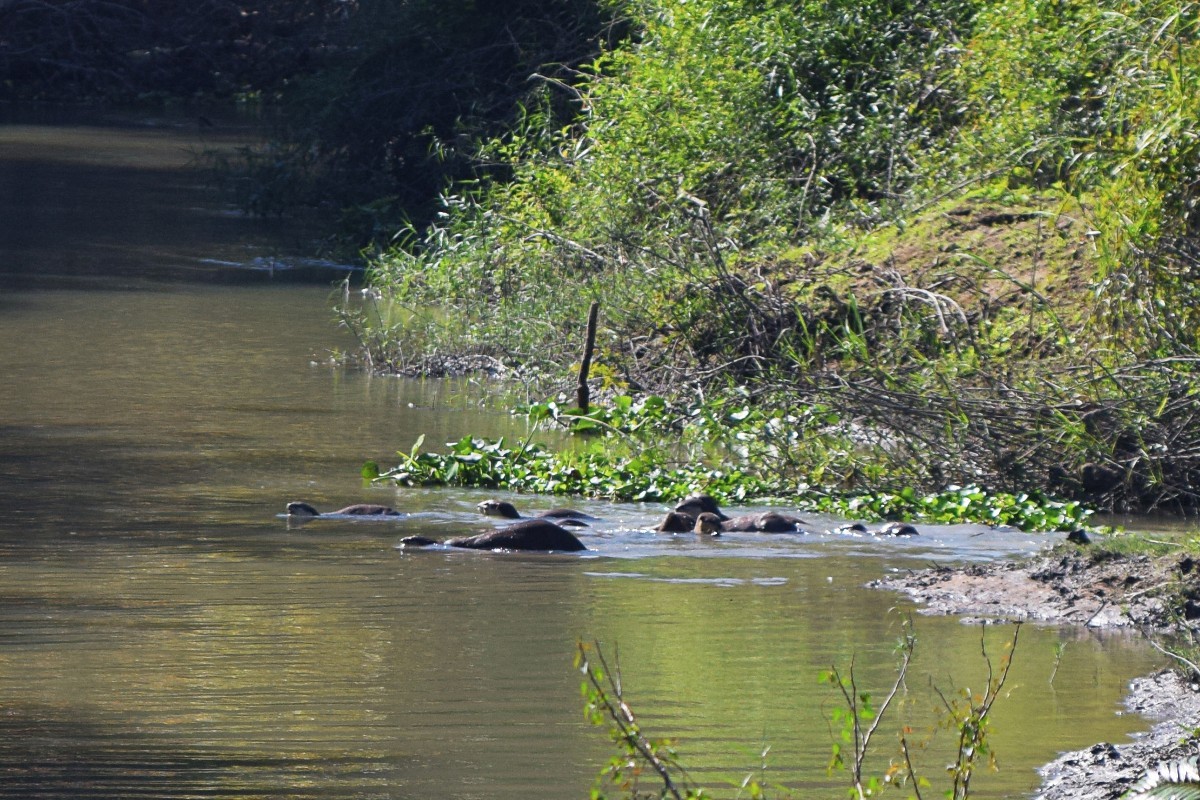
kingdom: Animalia
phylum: Chordata
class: Mammalia
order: Carnivora
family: Mustelidae
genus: Lutrogale
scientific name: Lutrogale perspicillata
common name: Smooth-coated otter
